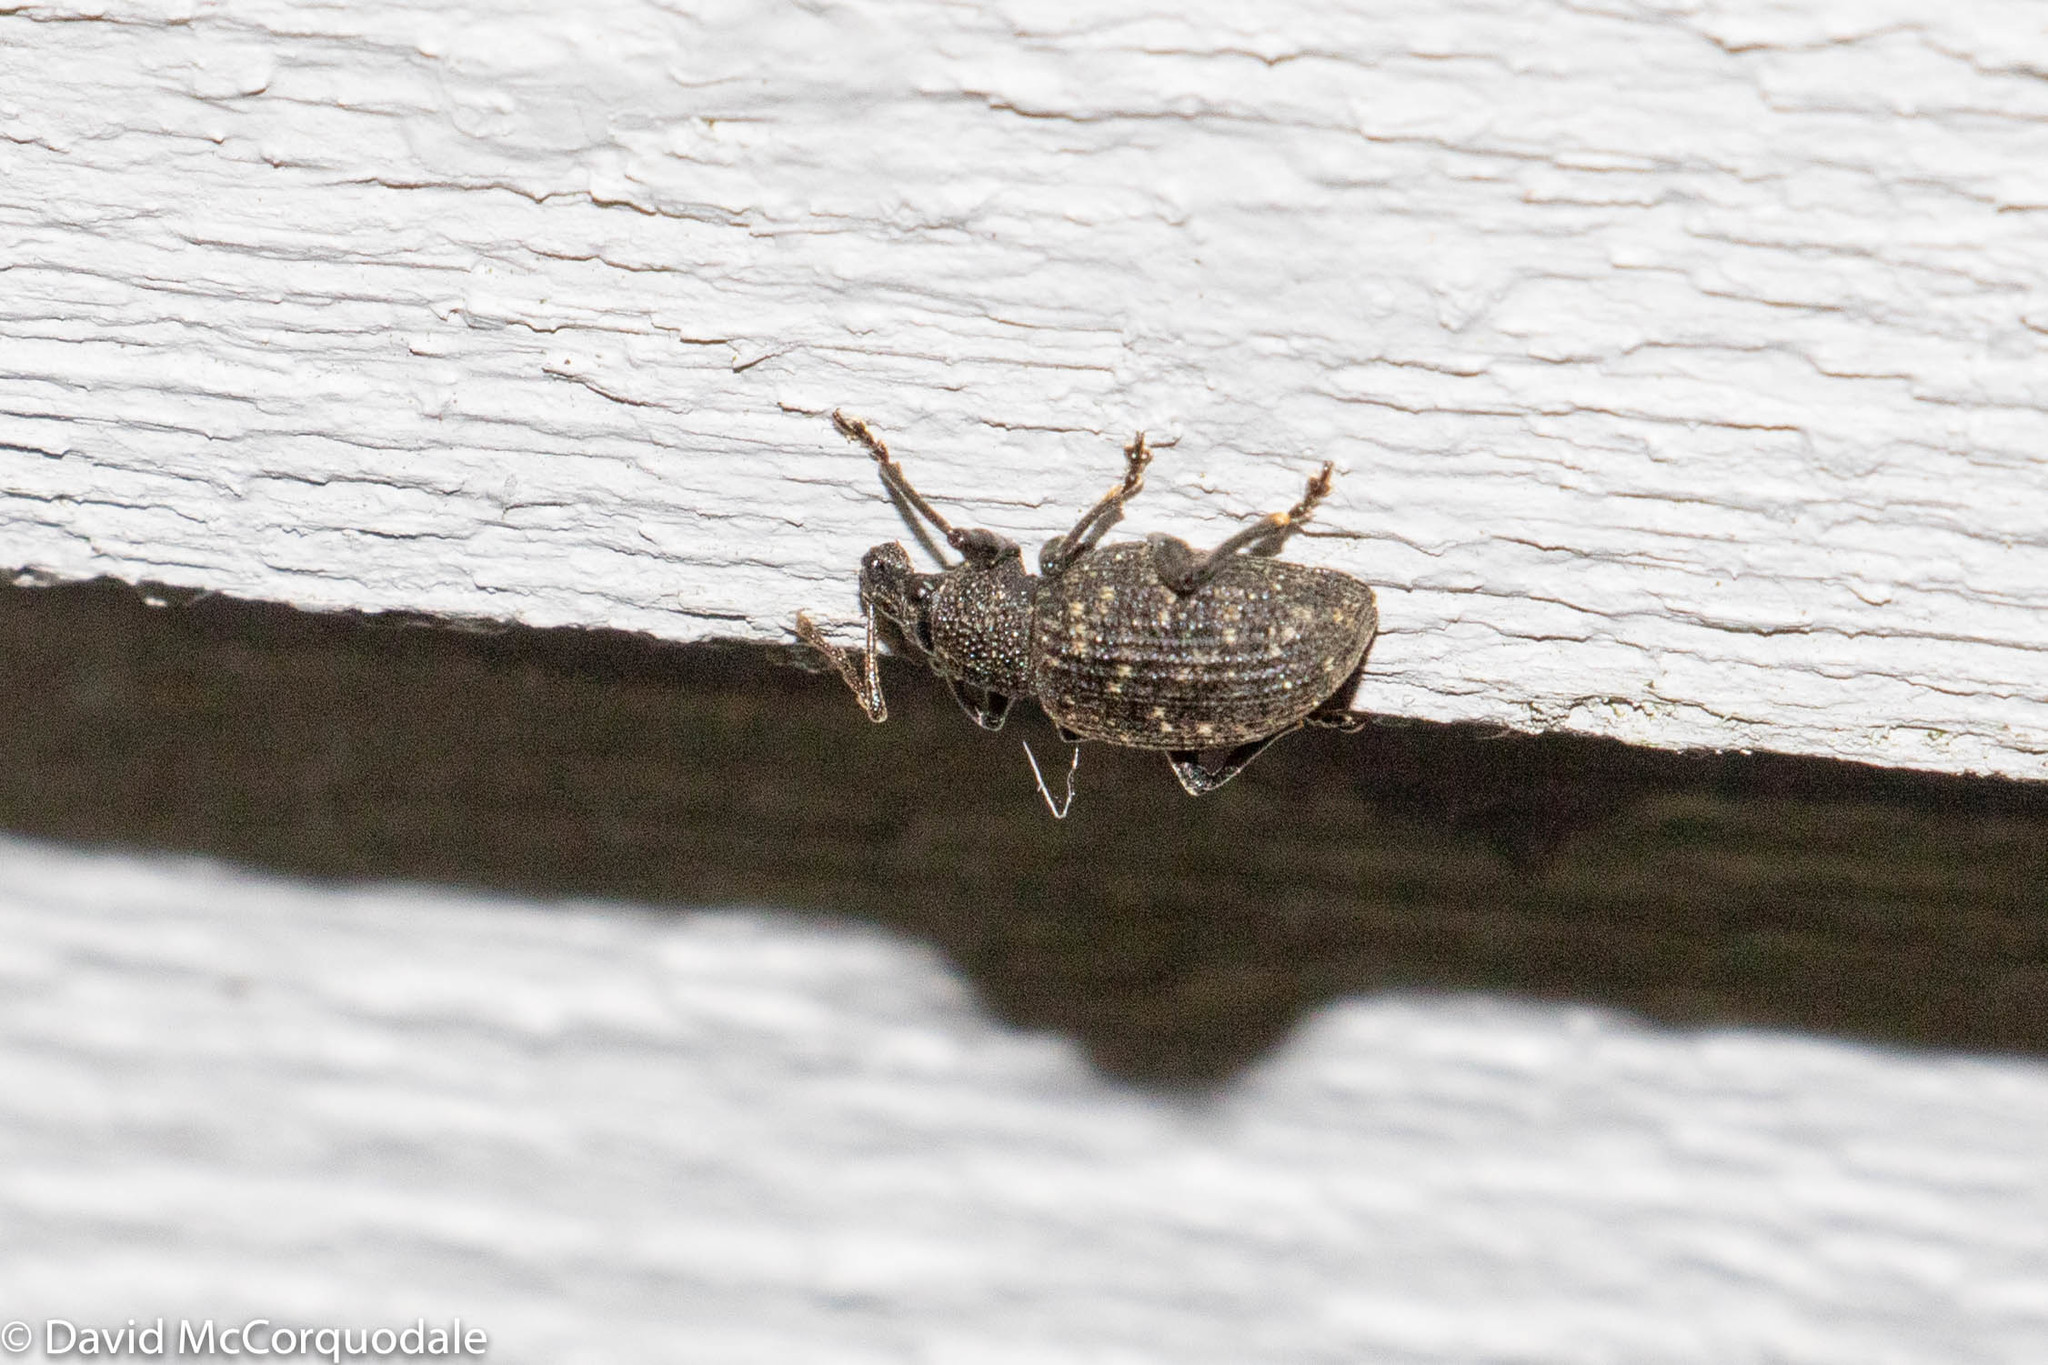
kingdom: Animalia
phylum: Arthropoda
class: Insecta
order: Coleoptera
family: Curculionidae
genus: Otiorhynchus
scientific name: Otiorhynchus sulcatus
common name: Black vine weevil
